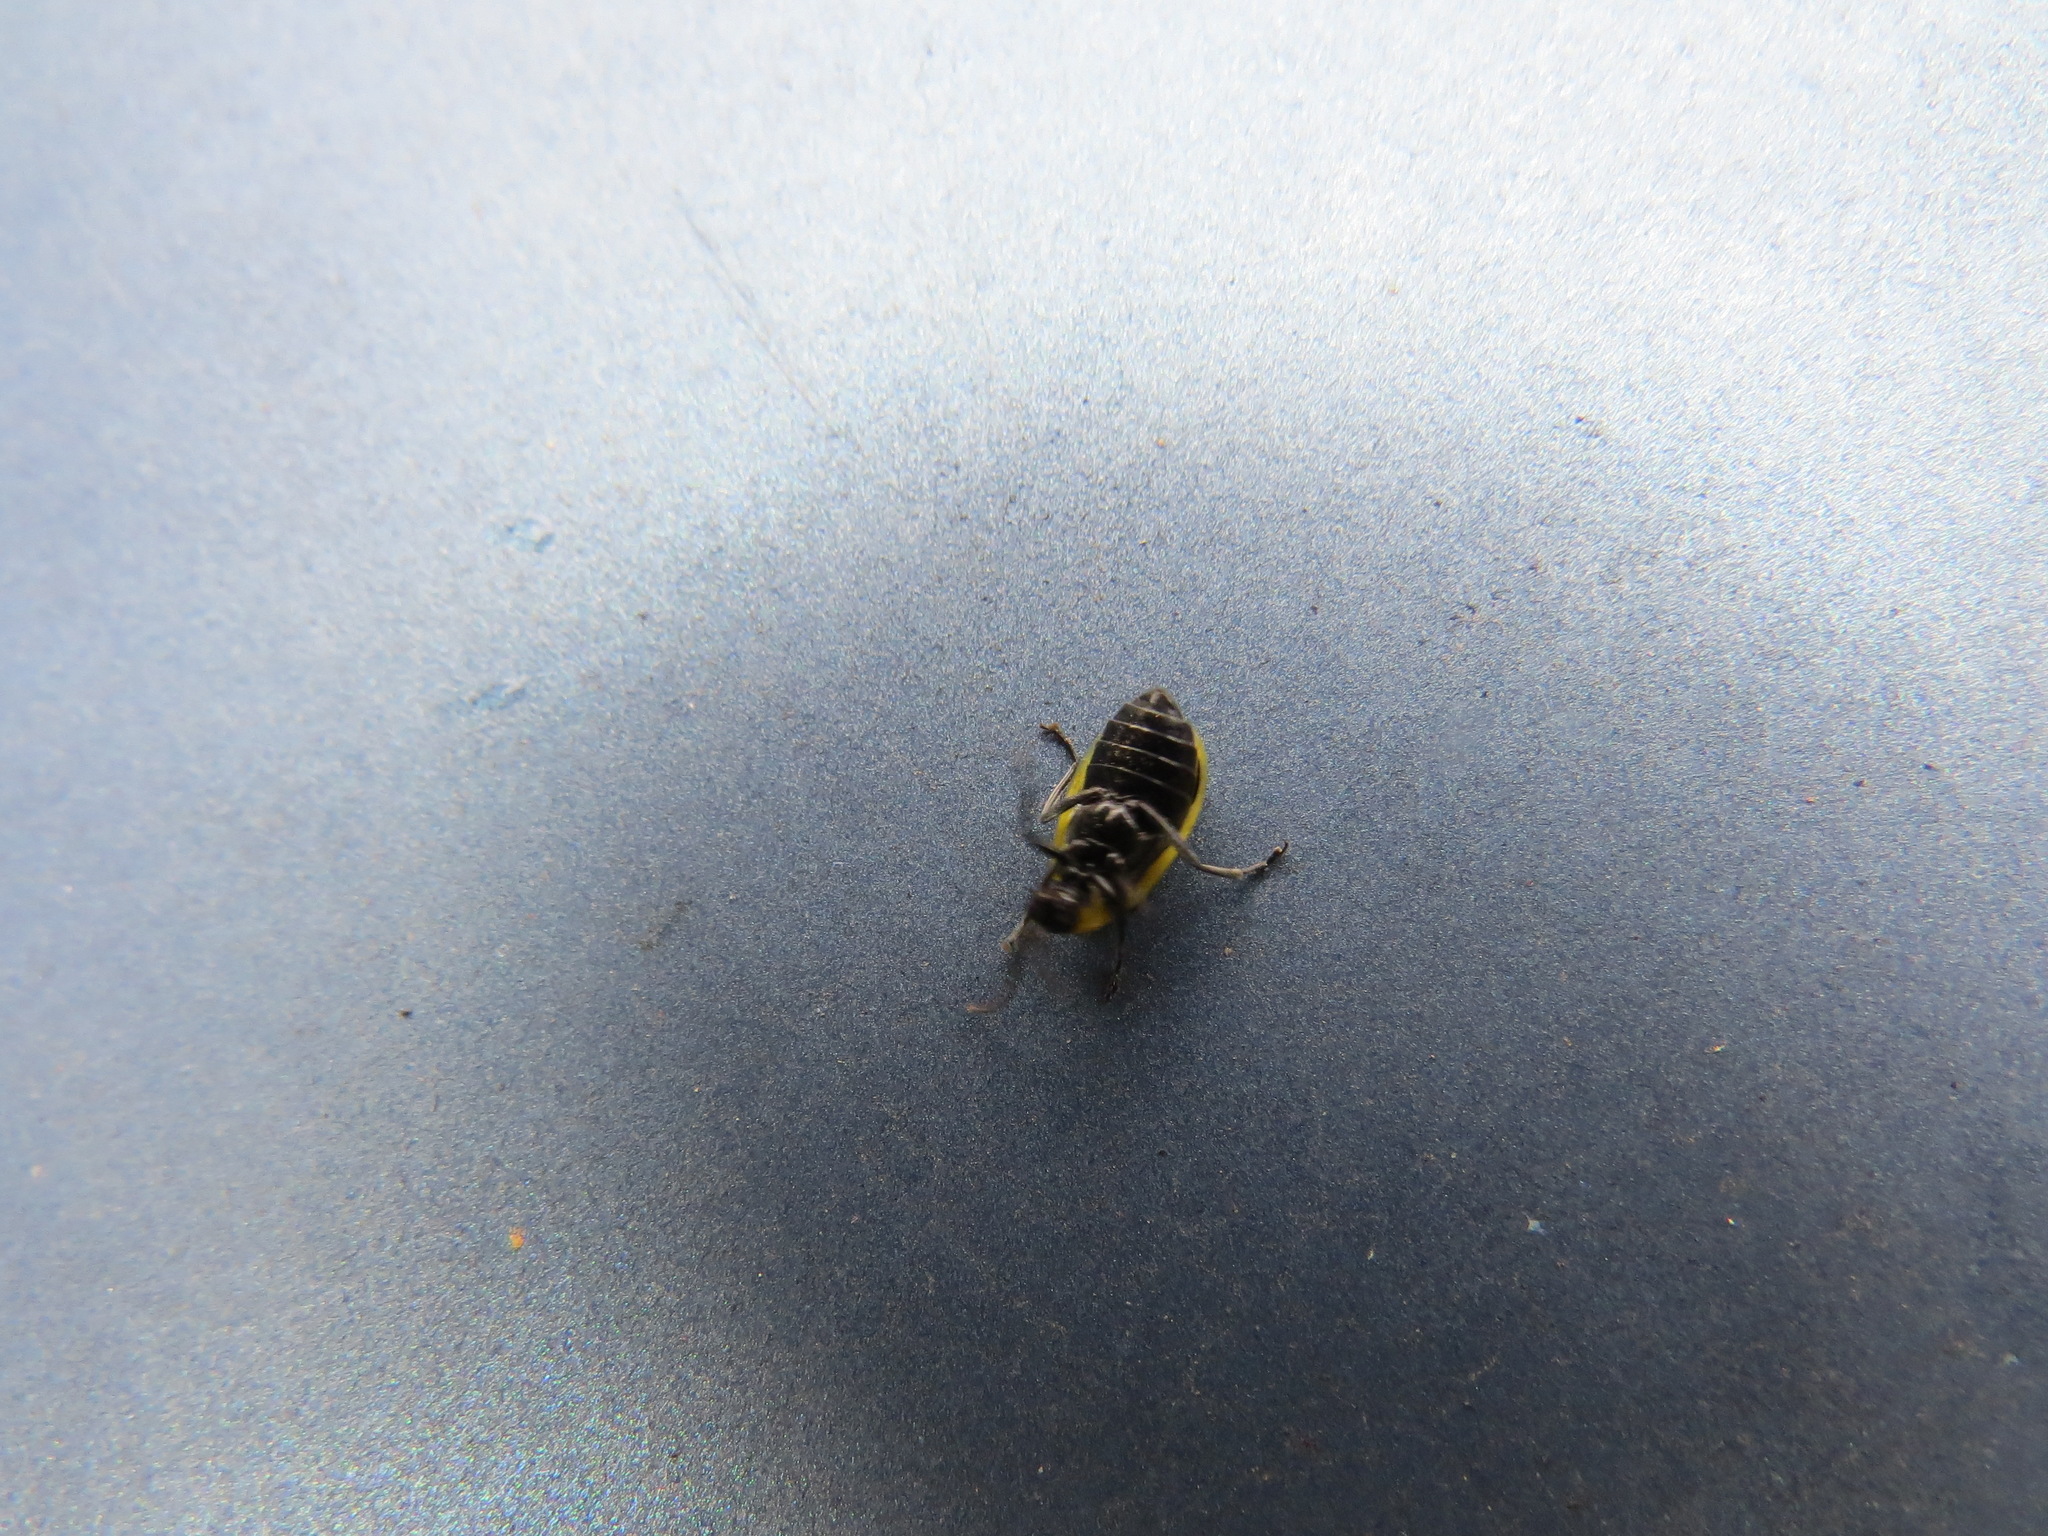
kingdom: Animalia
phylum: Arthropoda
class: Insecta
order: Coleoptera
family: Chrysomelidae
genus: Diabrotica
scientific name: Diabrotica undecimpunctata
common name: Spotted cucumber beetle
